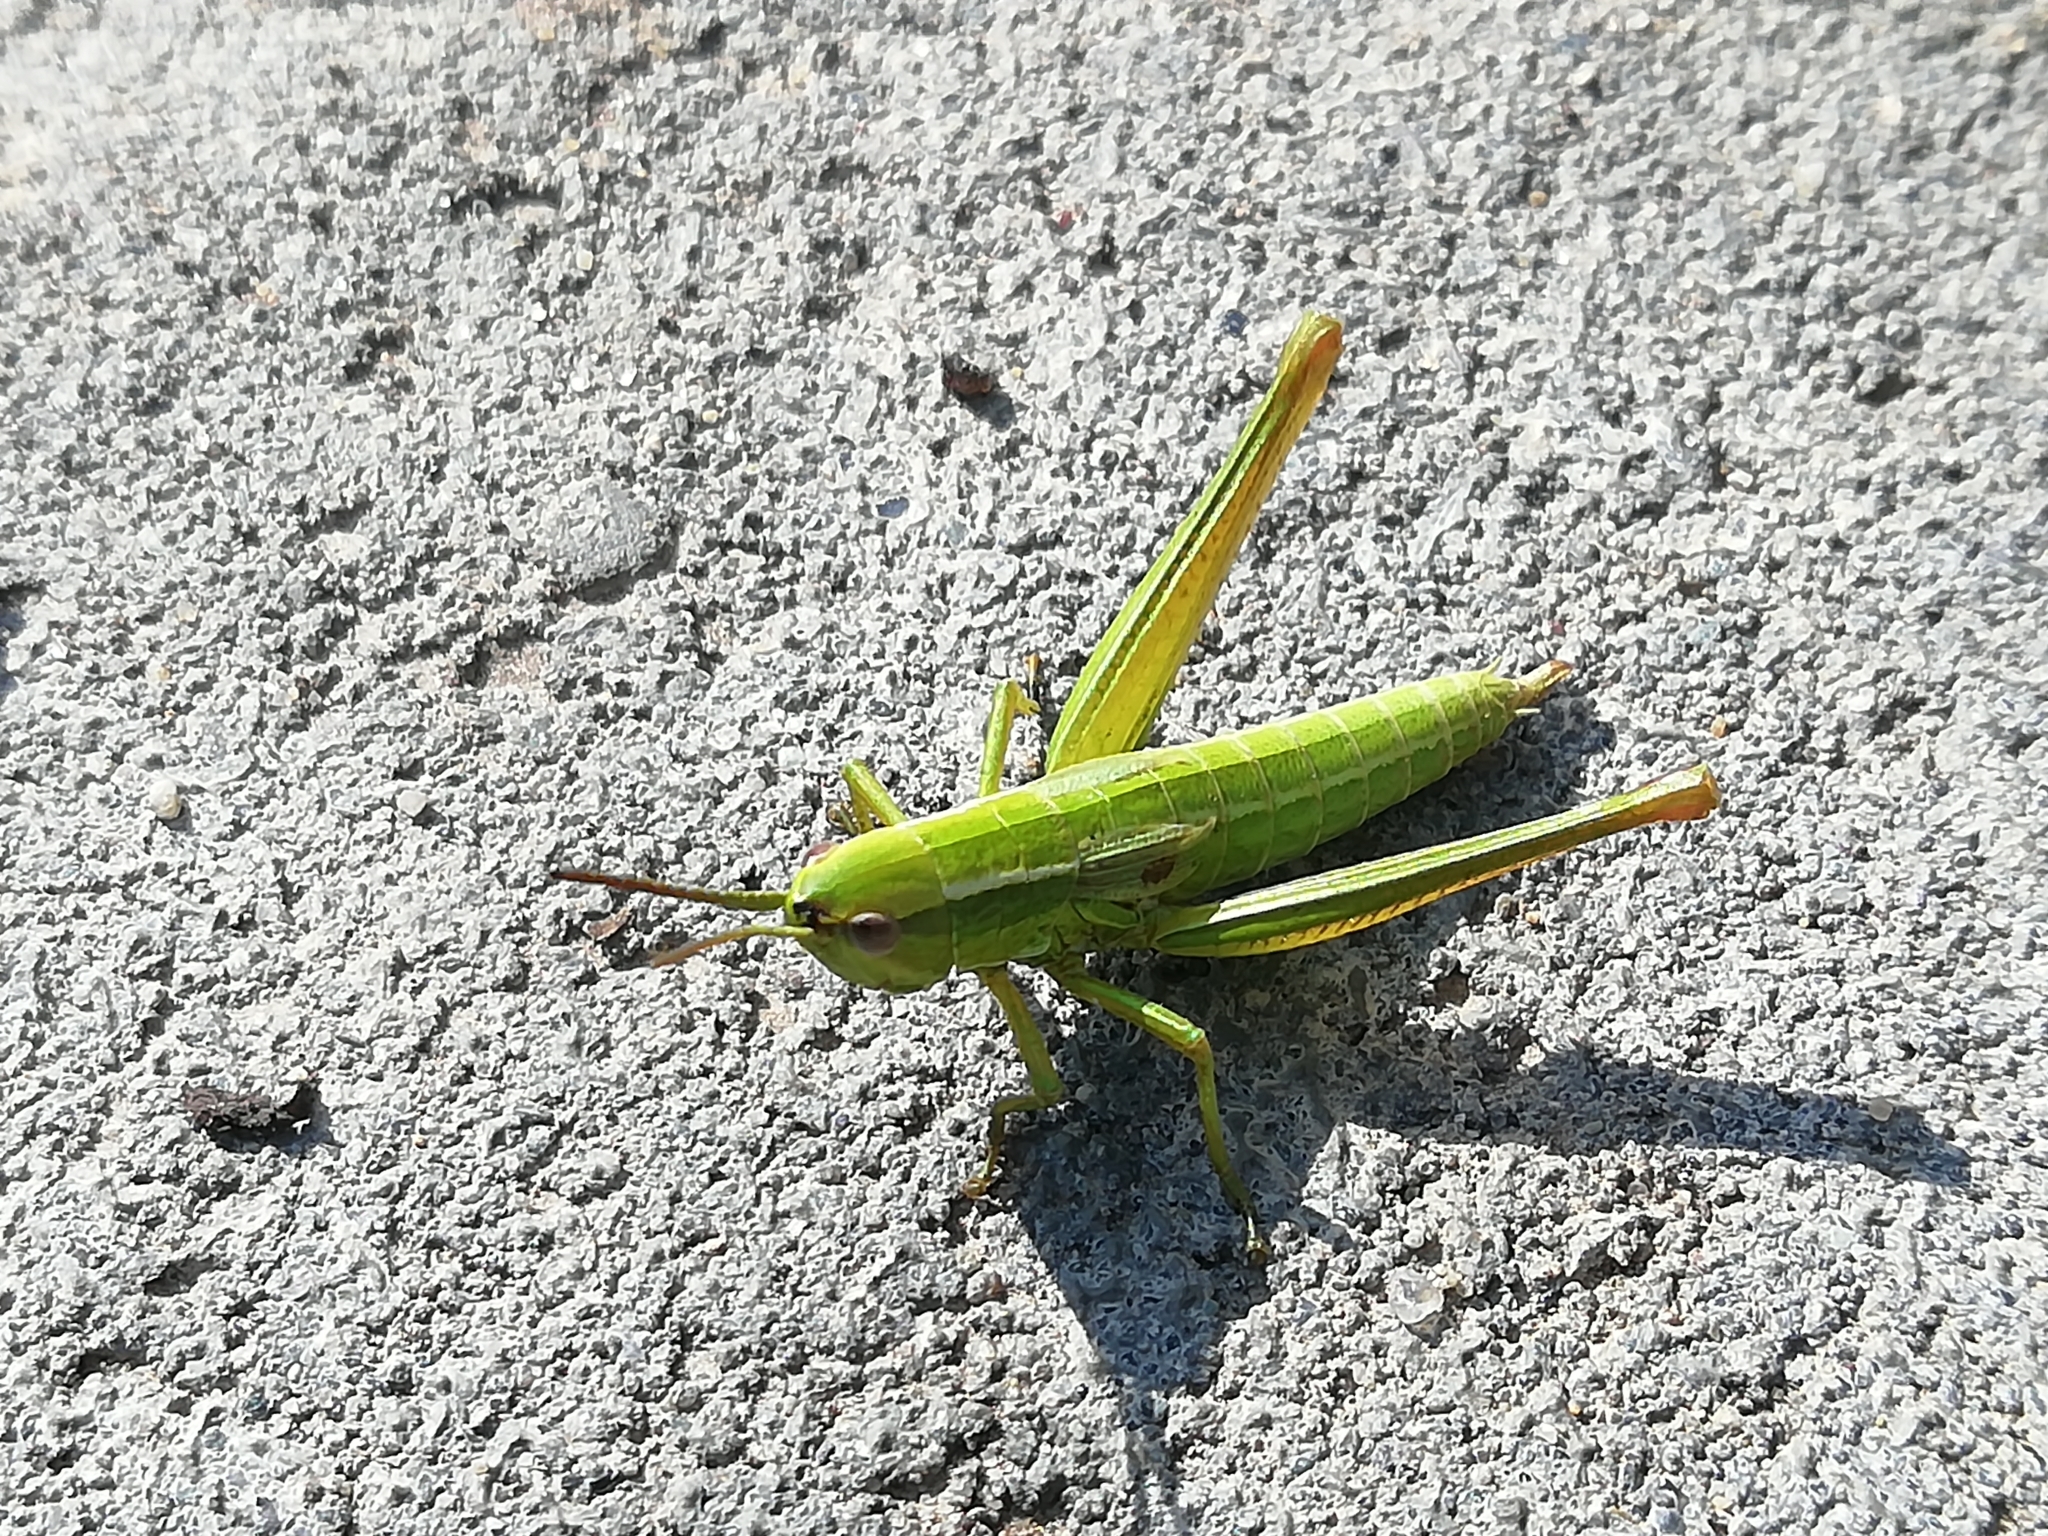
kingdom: Animalia
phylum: Arthropoda
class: Insecta
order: Orthoptera
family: Acrididae
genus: Euthystira
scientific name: Euthystira brachyptera
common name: Small gold grasshopper
